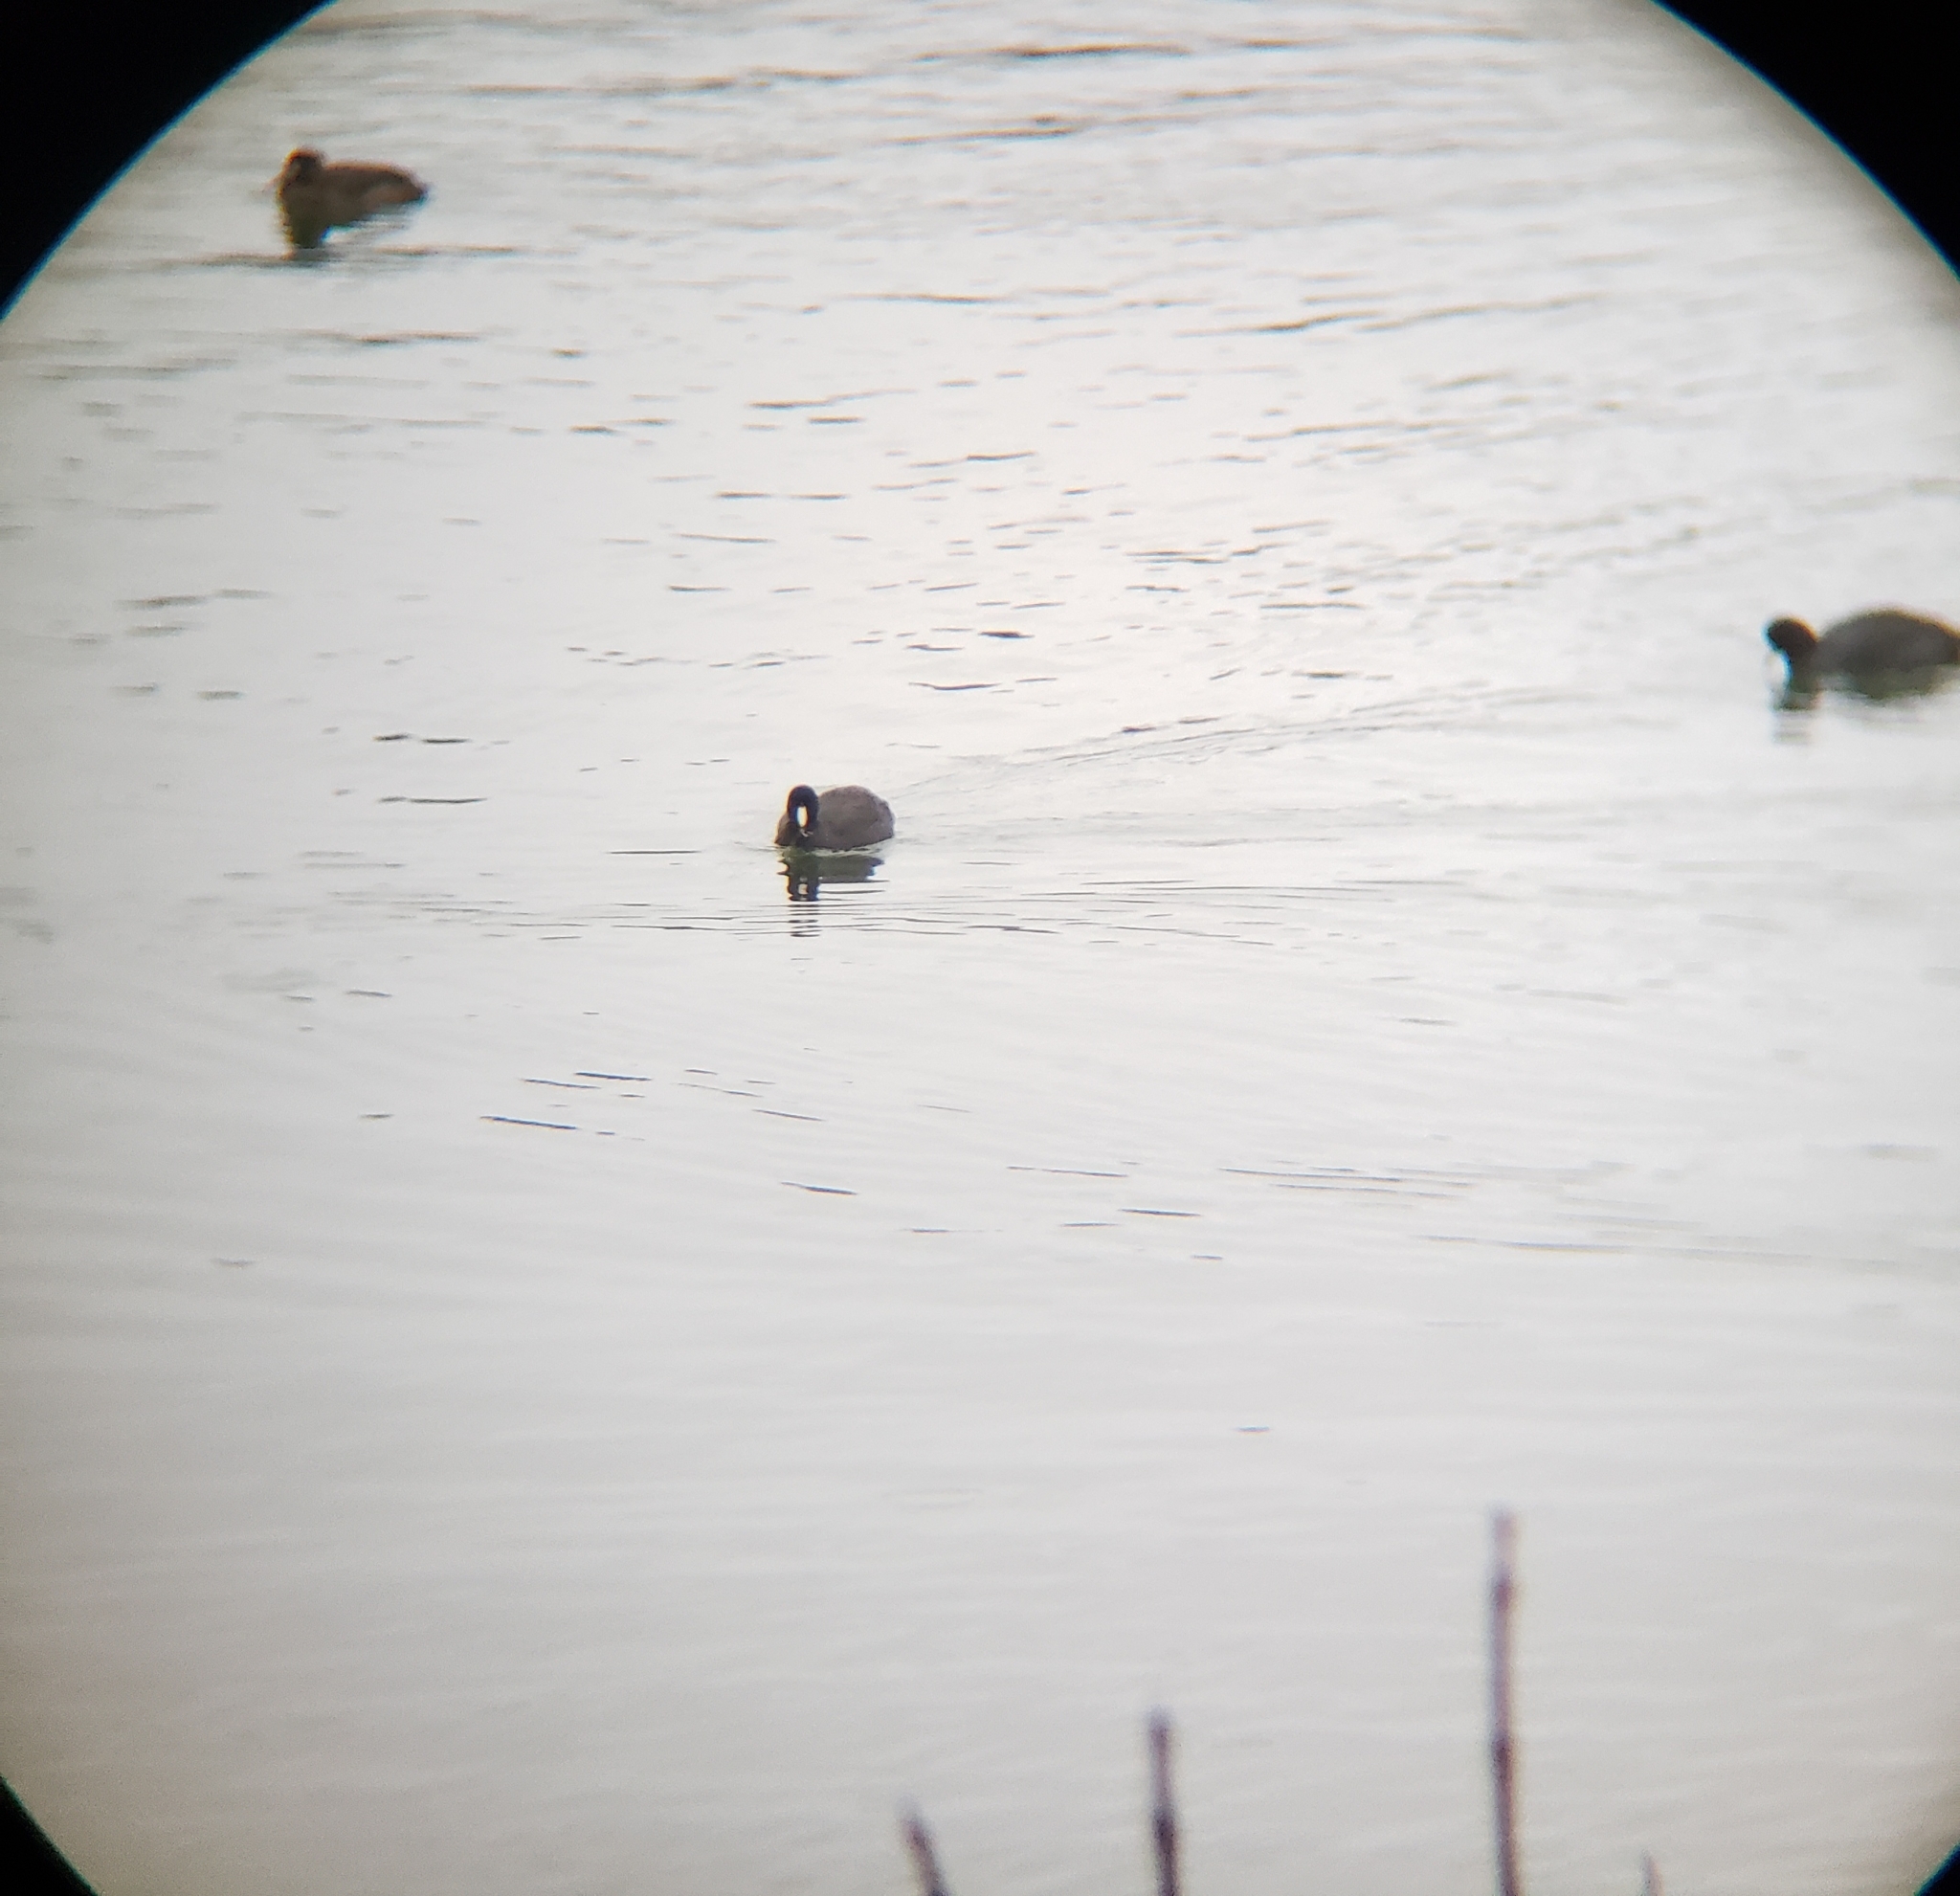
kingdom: Animalia
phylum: Chordata
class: Aves
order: Gruiformes
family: Rallidae
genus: Fulica
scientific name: Fulica americana
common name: American coot
